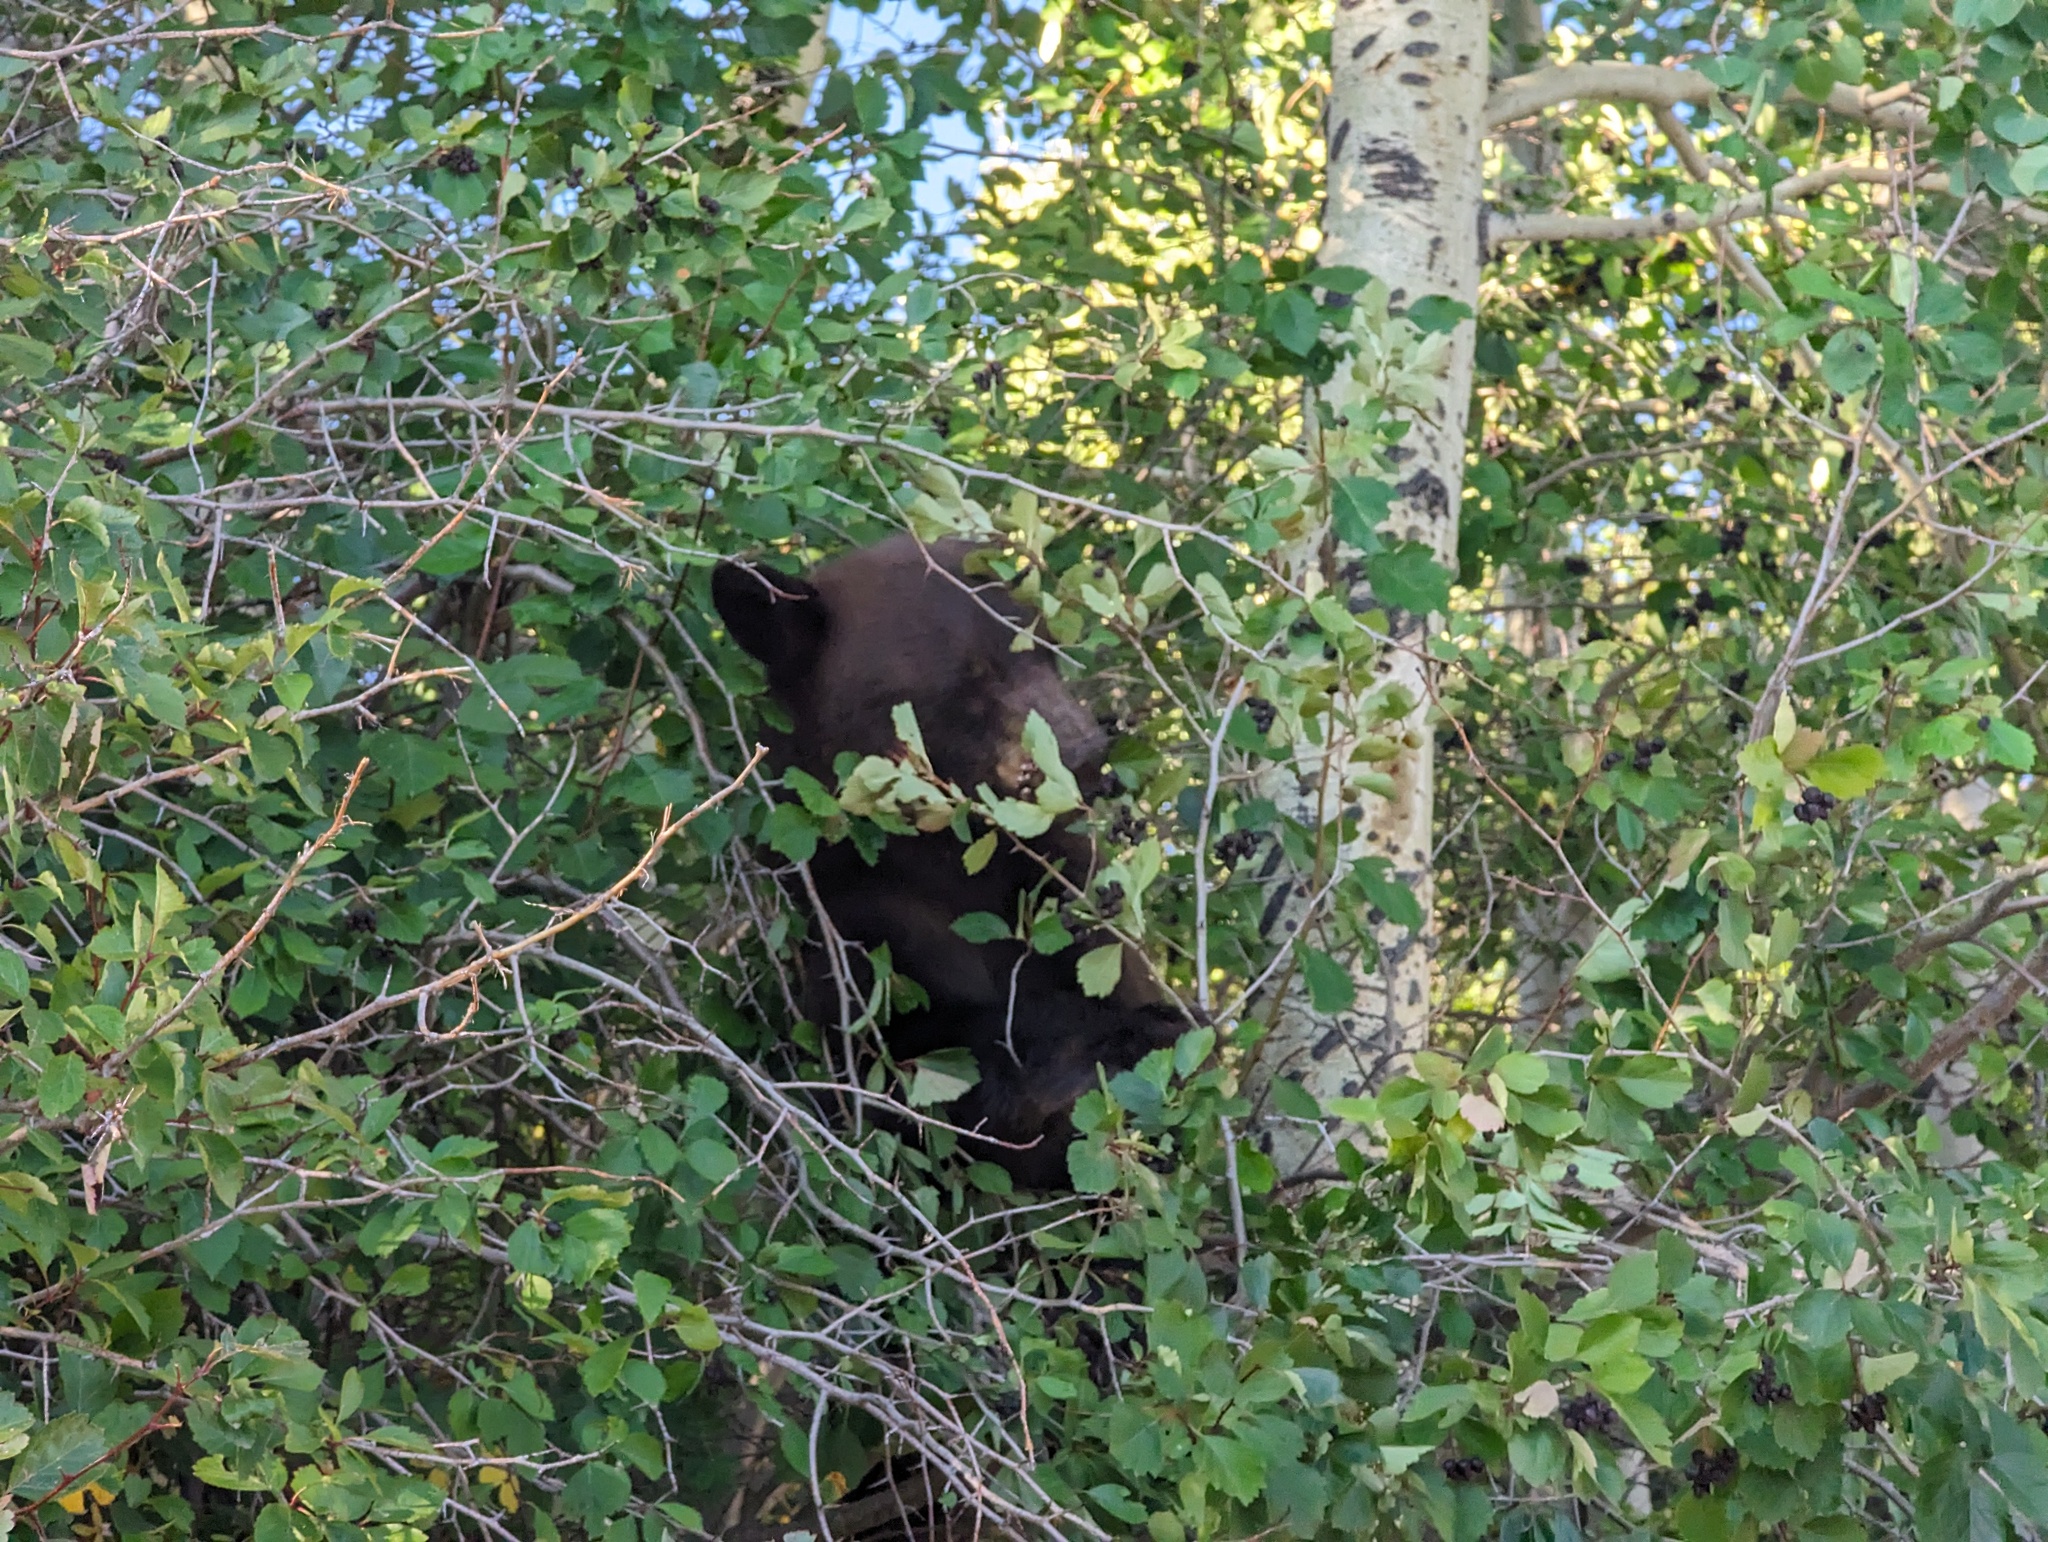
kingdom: Animalia
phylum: Chordata
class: Mammalia
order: Carnivora
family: Ursidae
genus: Ursus
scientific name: Ursus americanus
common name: American black bear
